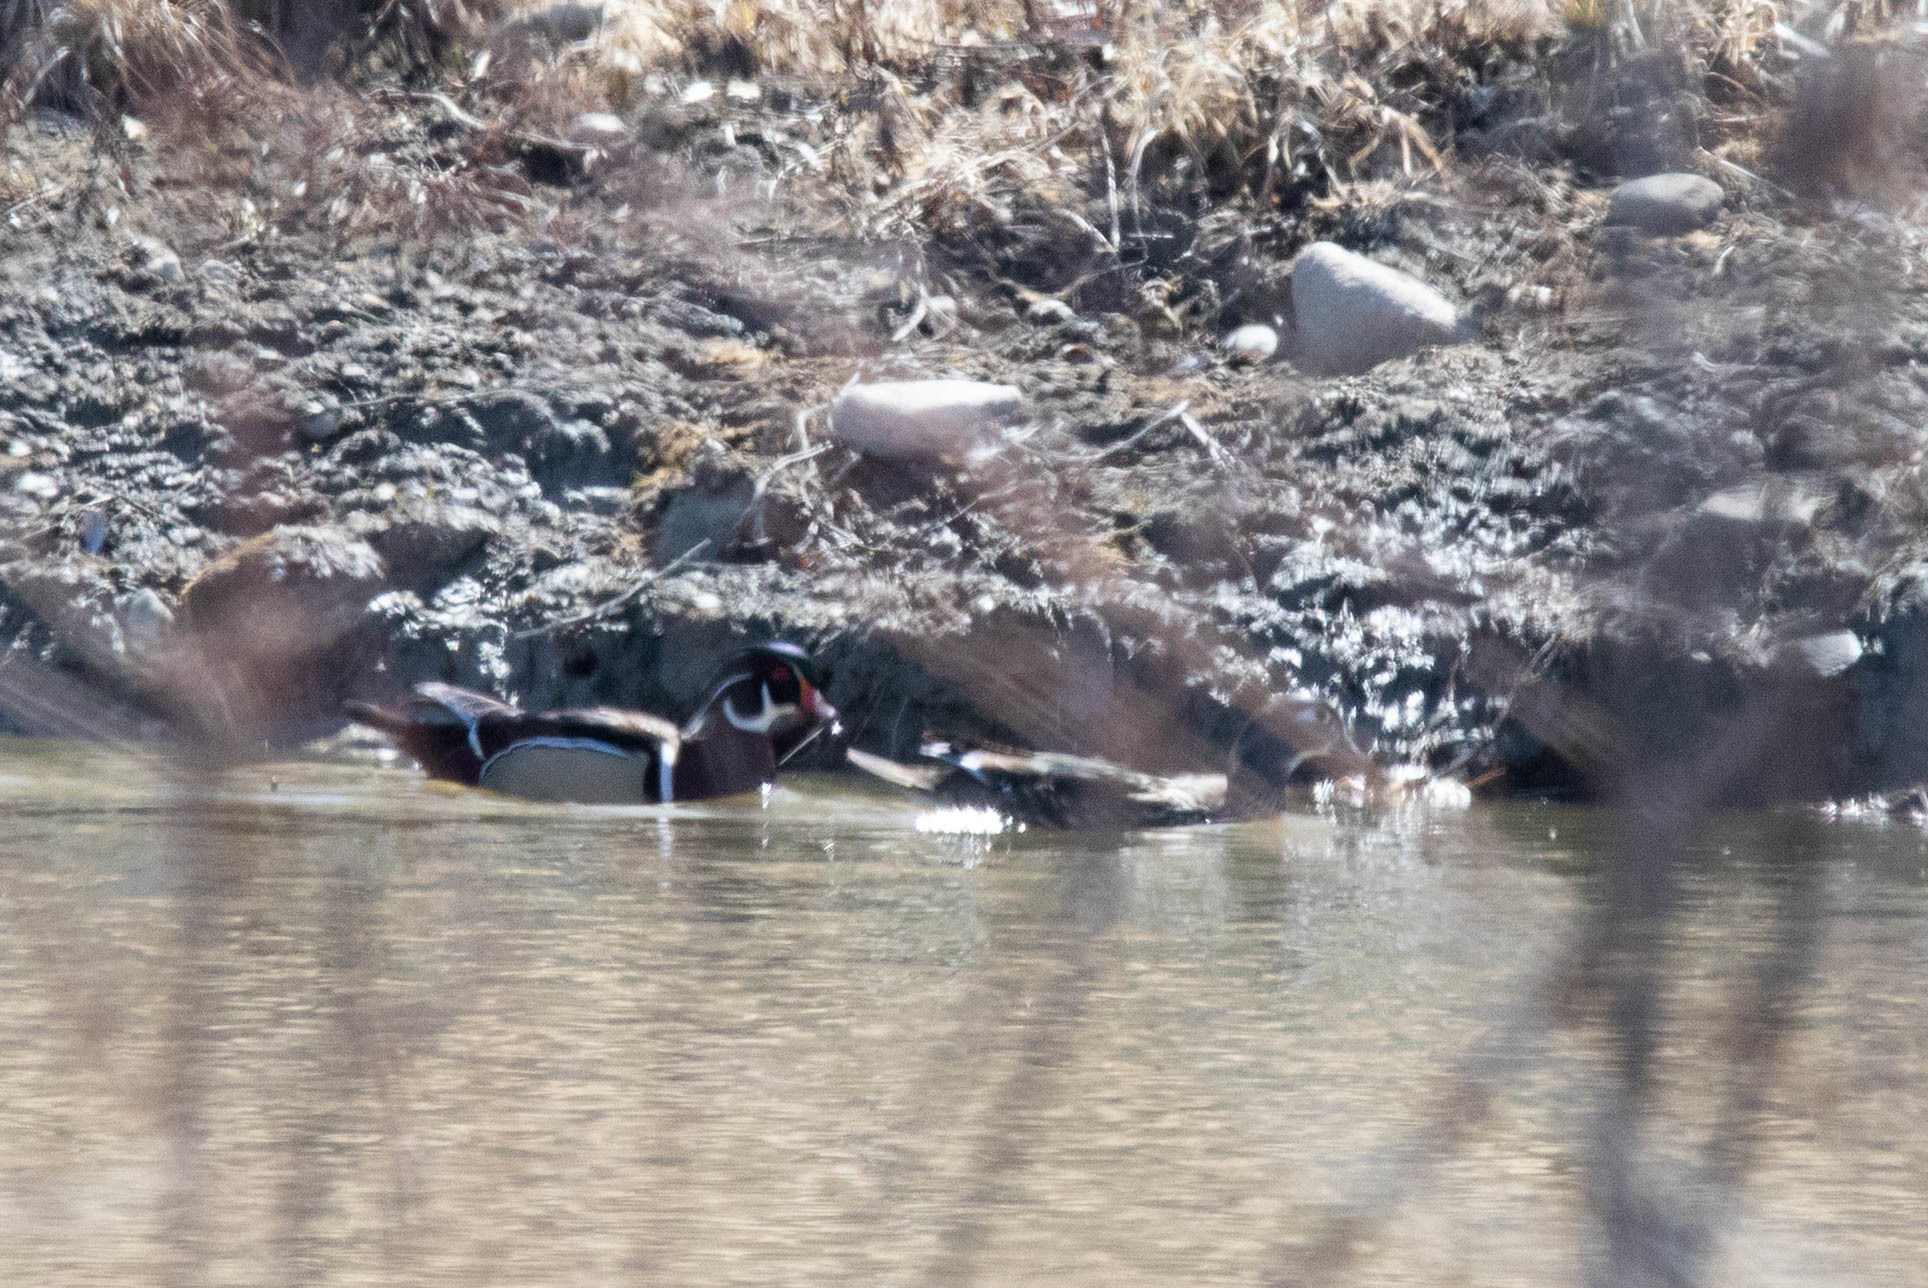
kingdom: Animalia
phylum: Chordata
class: Aves
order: Anseriformes
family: Anatidae
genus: Aix
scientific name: Aix sponsa
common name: Wood duck
